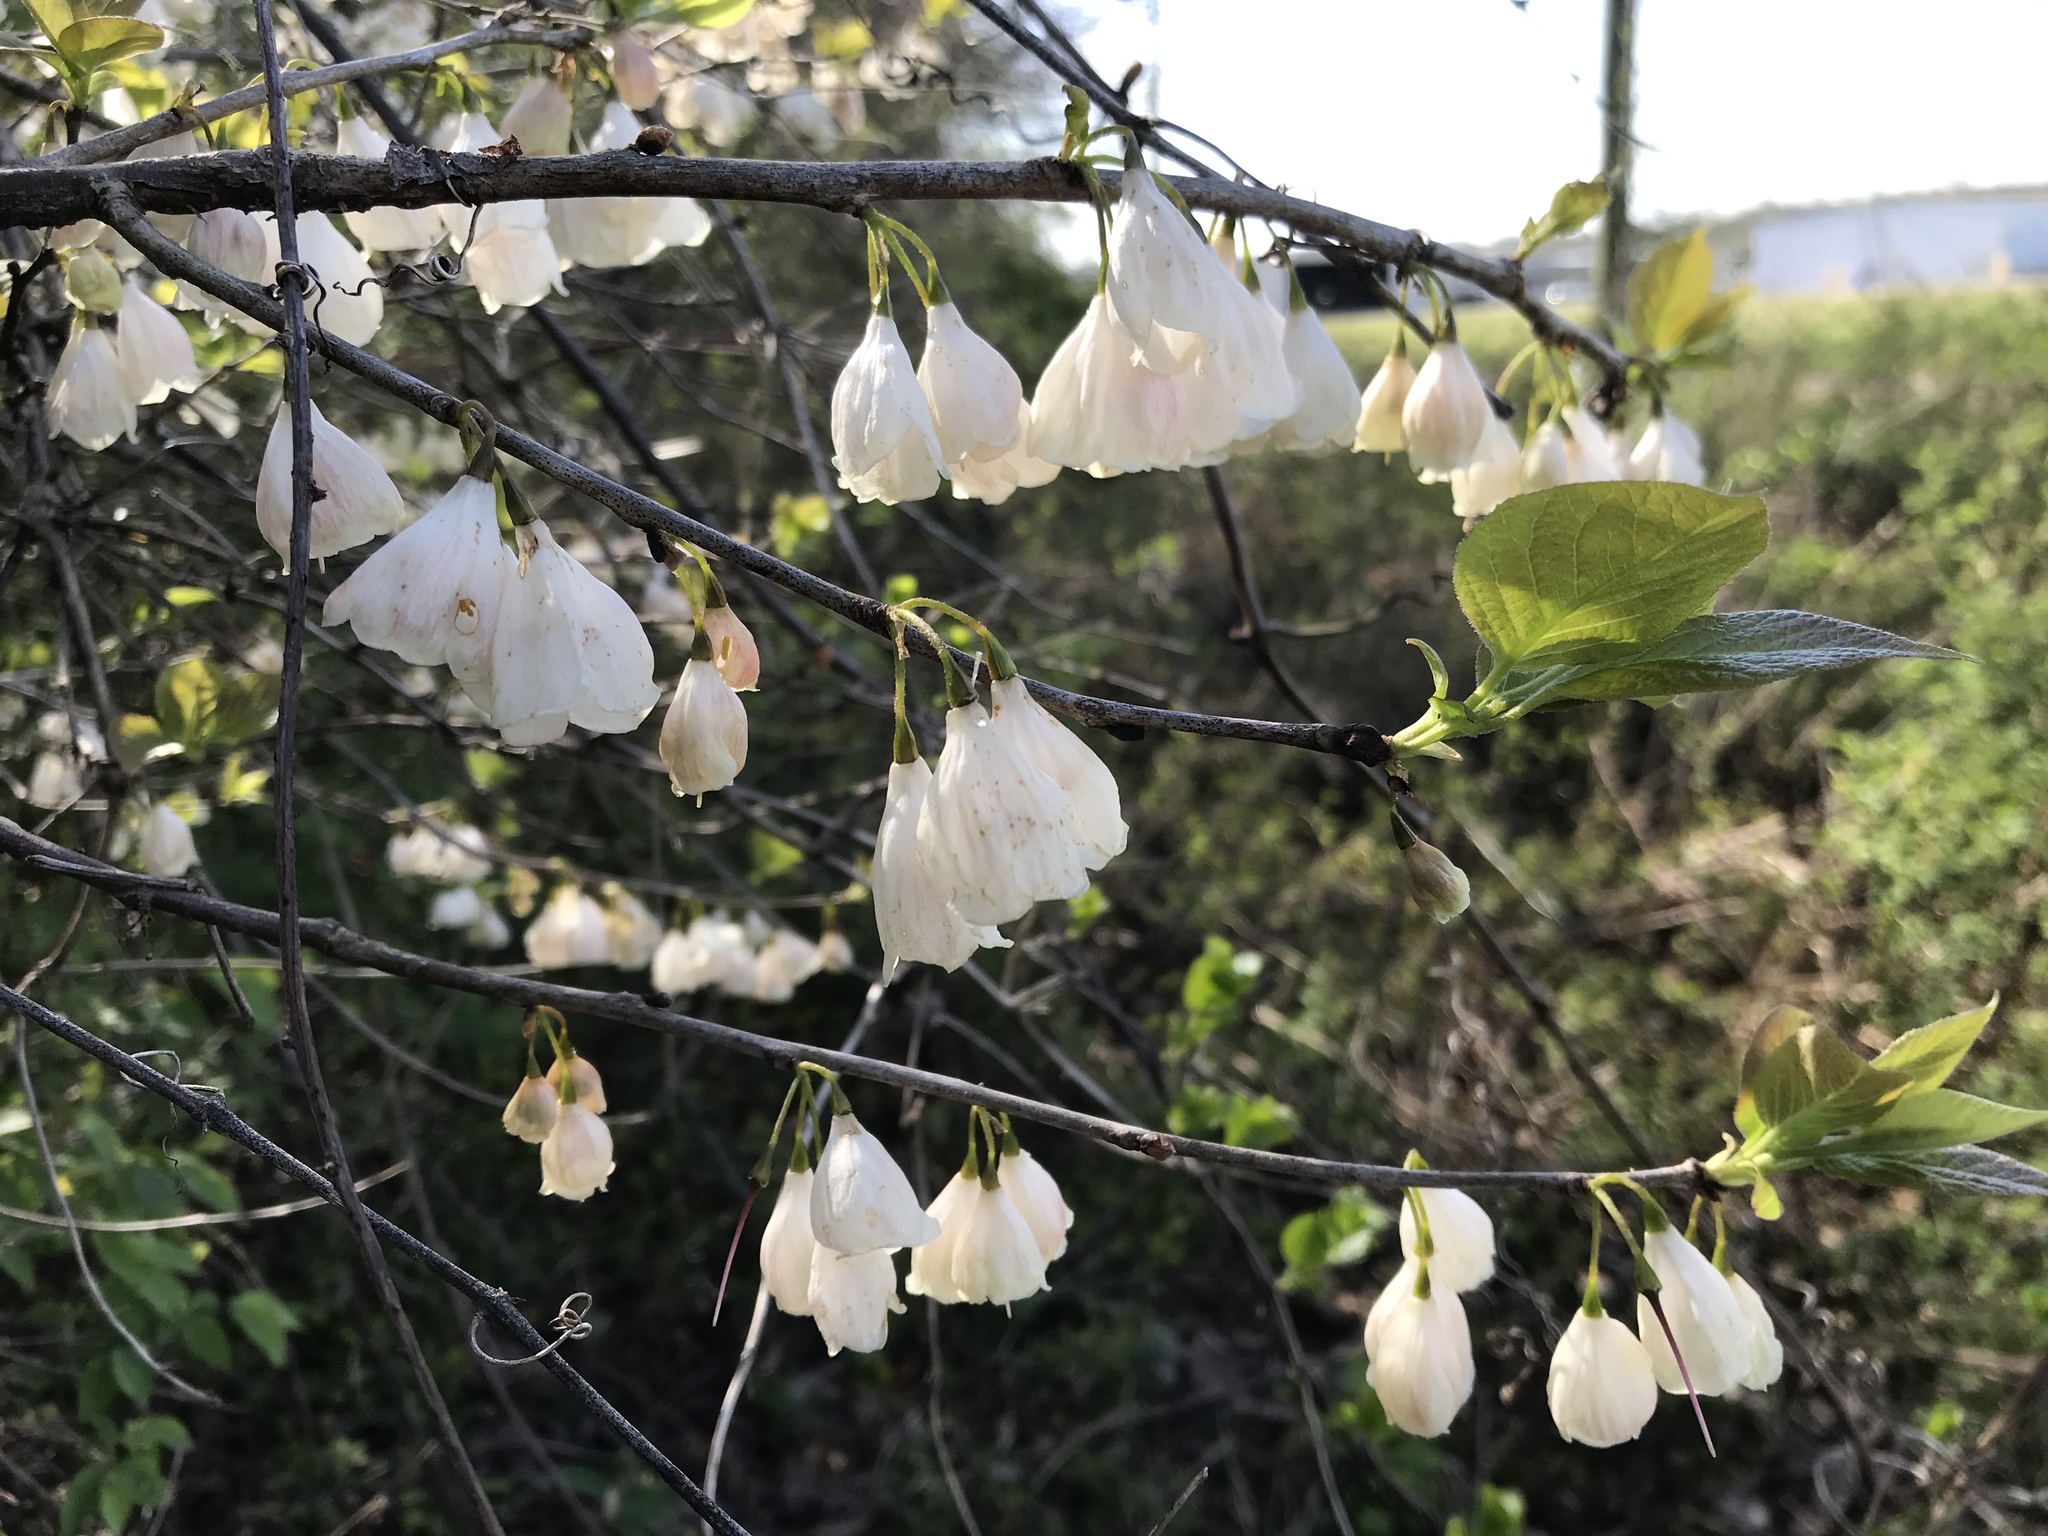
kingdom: Plantae
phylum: Tracheophyta
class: Magnoliopsida
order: Ericales
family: Styracaceae
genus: Halesia
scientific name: Halesia carolina
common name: Carolina silverbell
